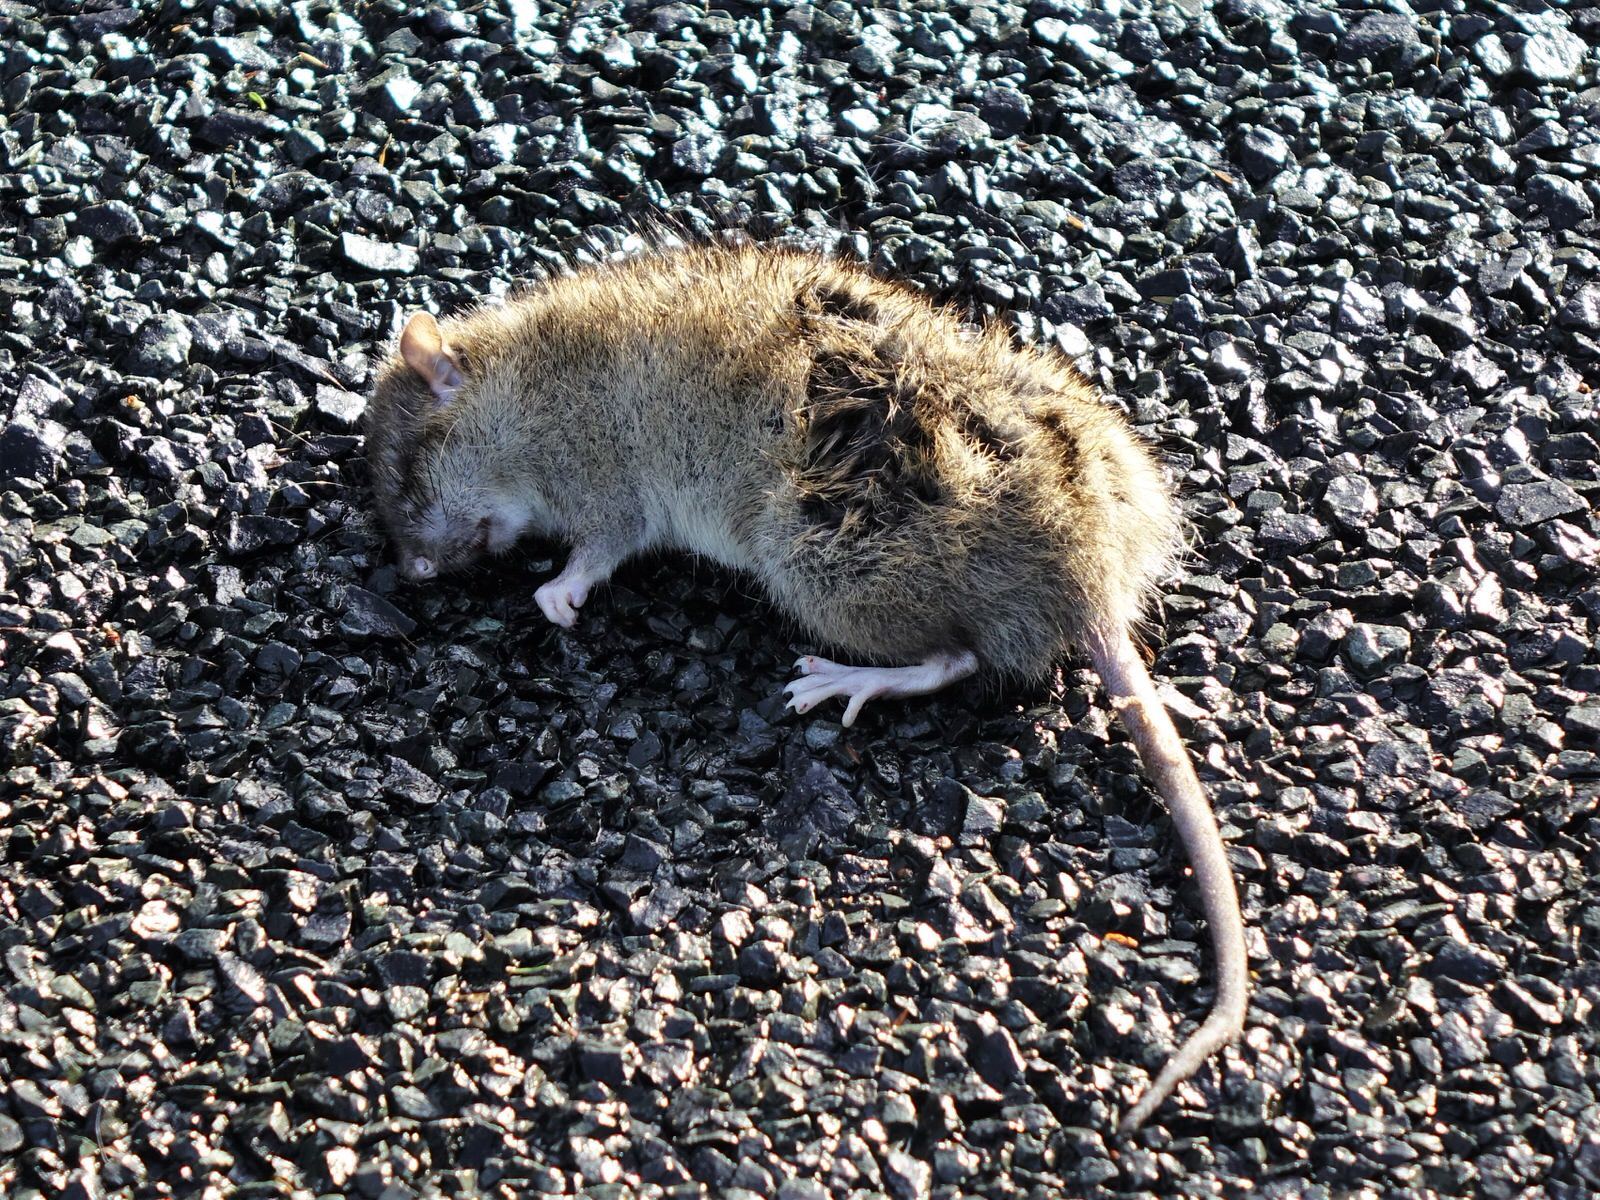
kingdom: Animalia
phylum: Chordata
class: Mammalia
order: Rodentia
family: Muridae
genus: Rattus
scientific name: Rattus norvegicus
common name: Brown rat
